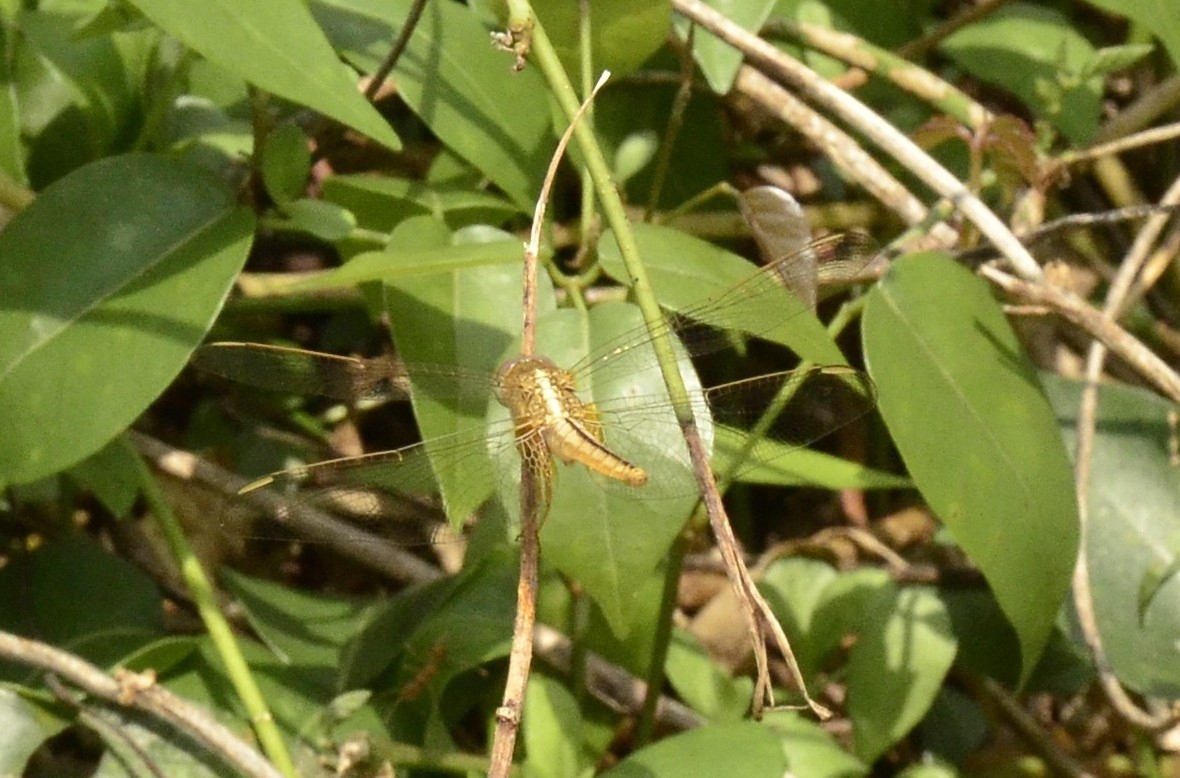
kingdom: Animalia
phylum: Arthropoda
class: Insecta
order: Odonata
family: Libellulidae
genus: Crocothemis
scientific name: Crocothemis servilia
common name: Scarlet skimmer
